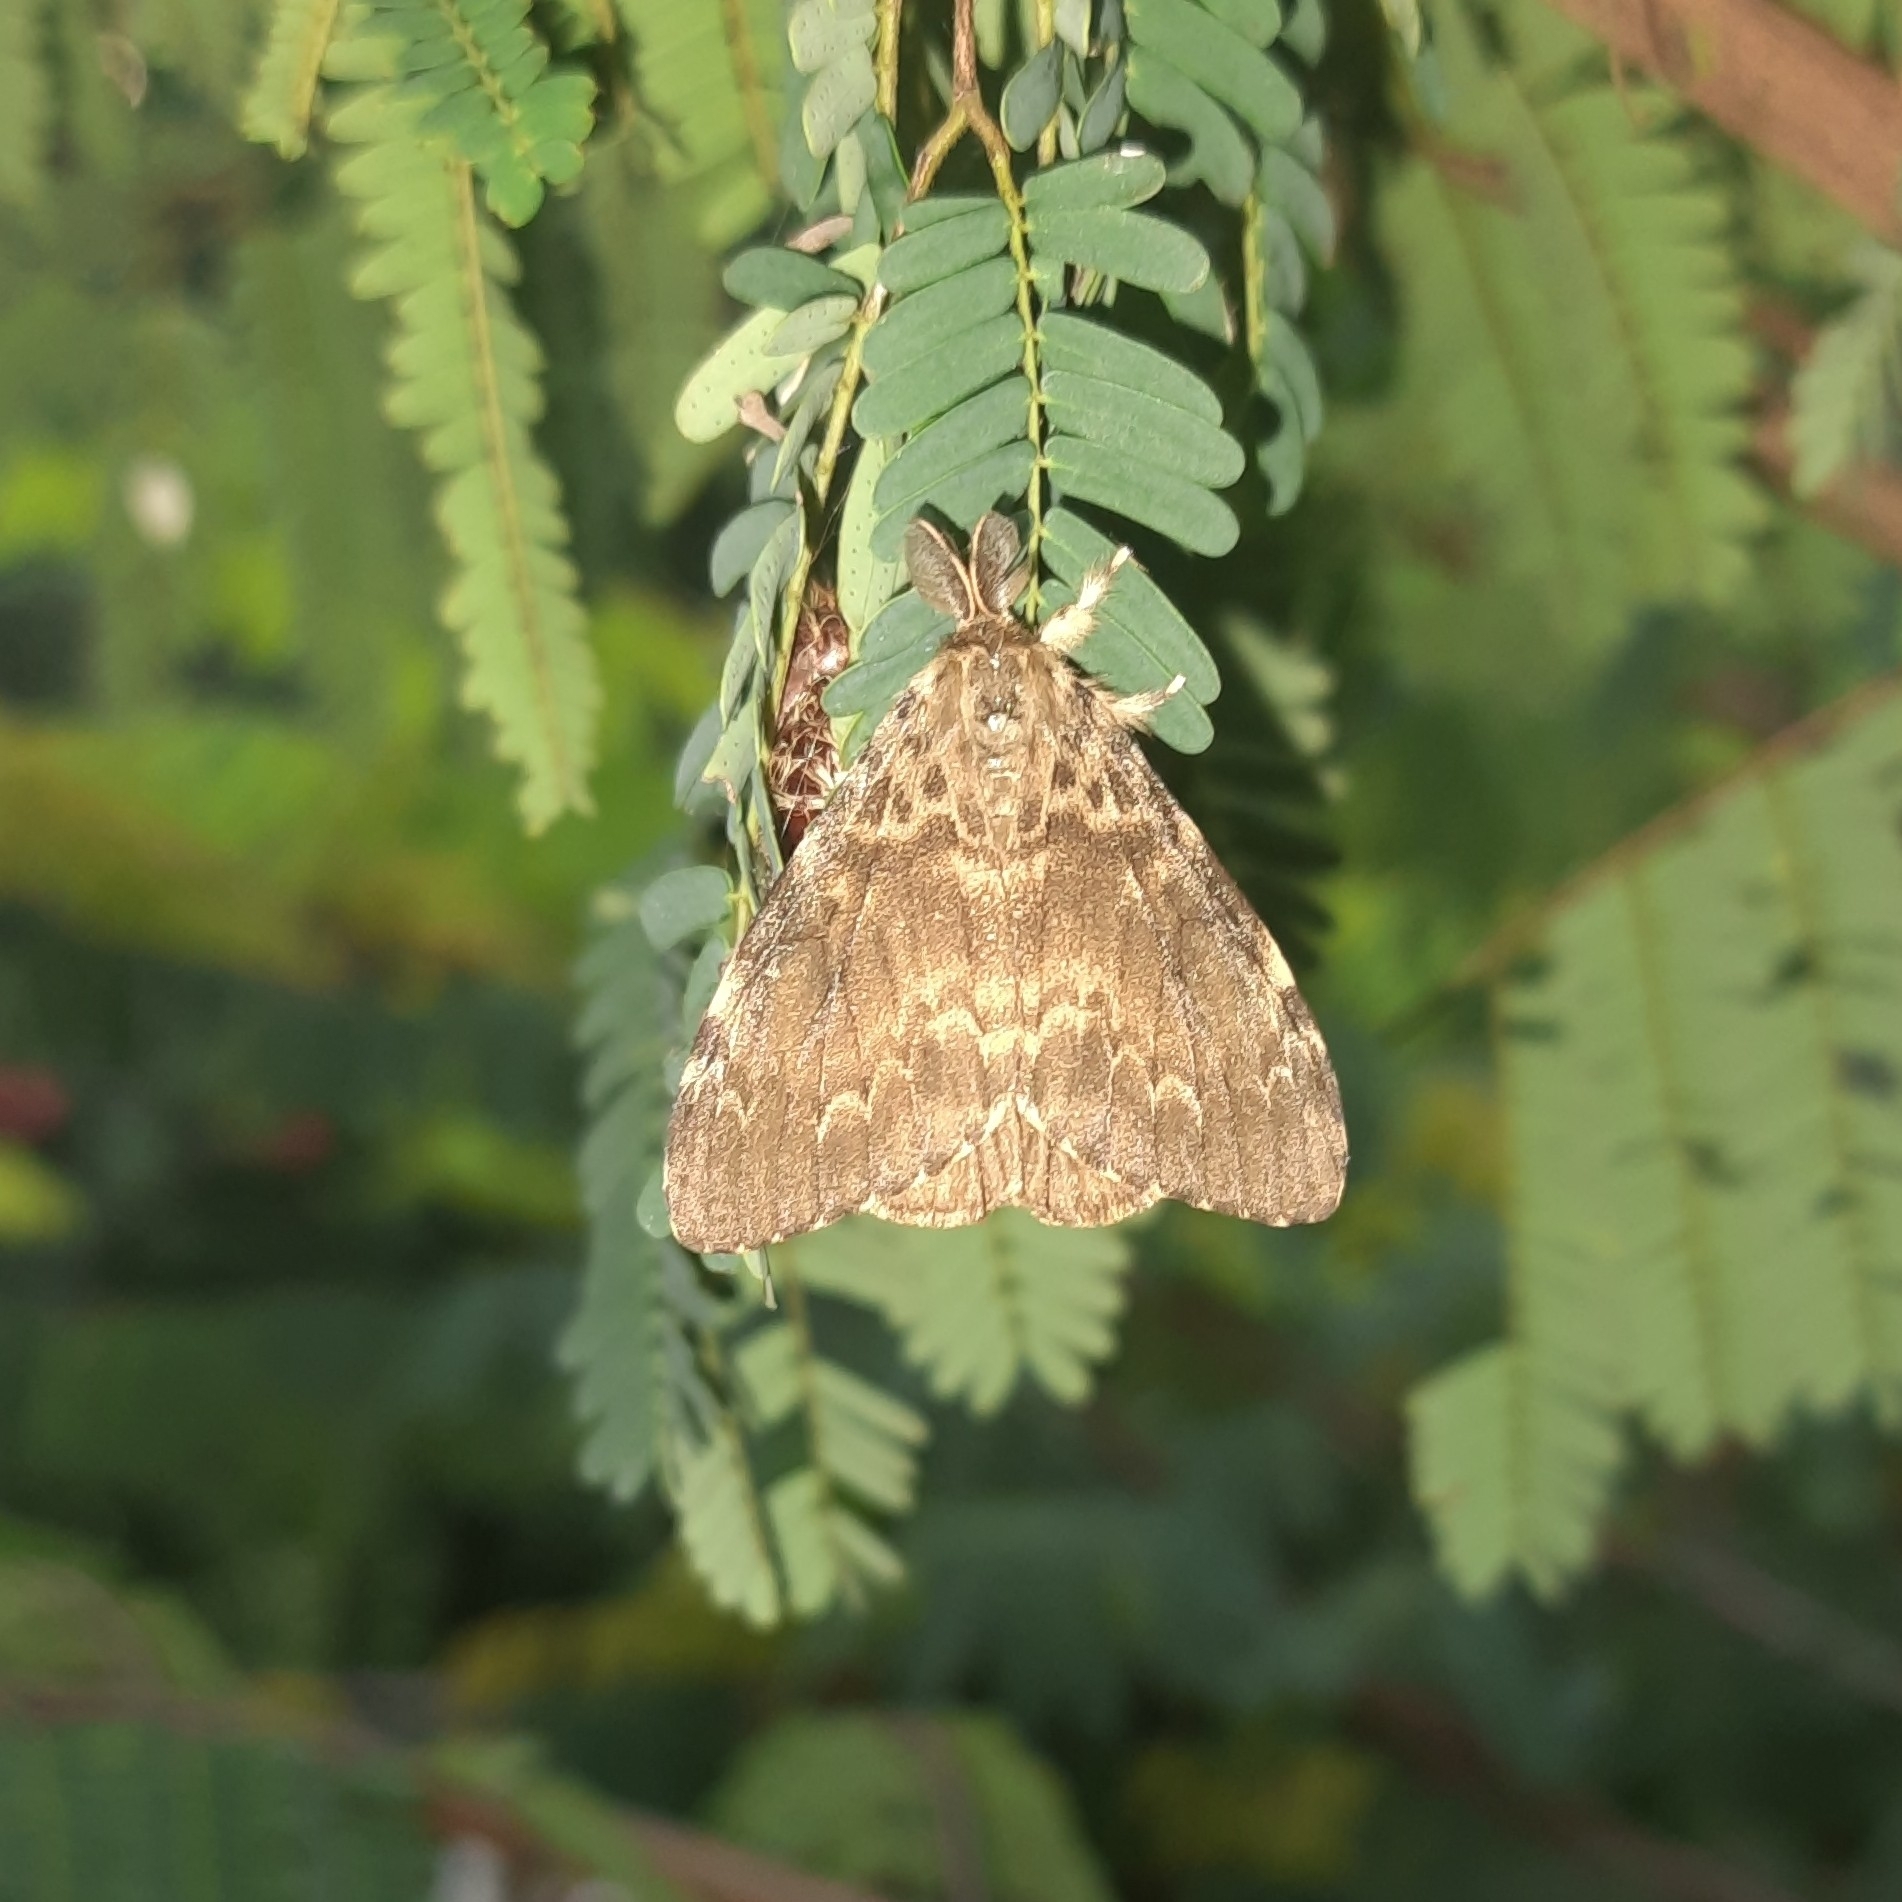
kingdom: Animalia
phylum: Arthropoda
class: Insecta
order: Lepidoptera
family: Erebidae
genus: Lymantria
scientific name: Lymantria ampla
